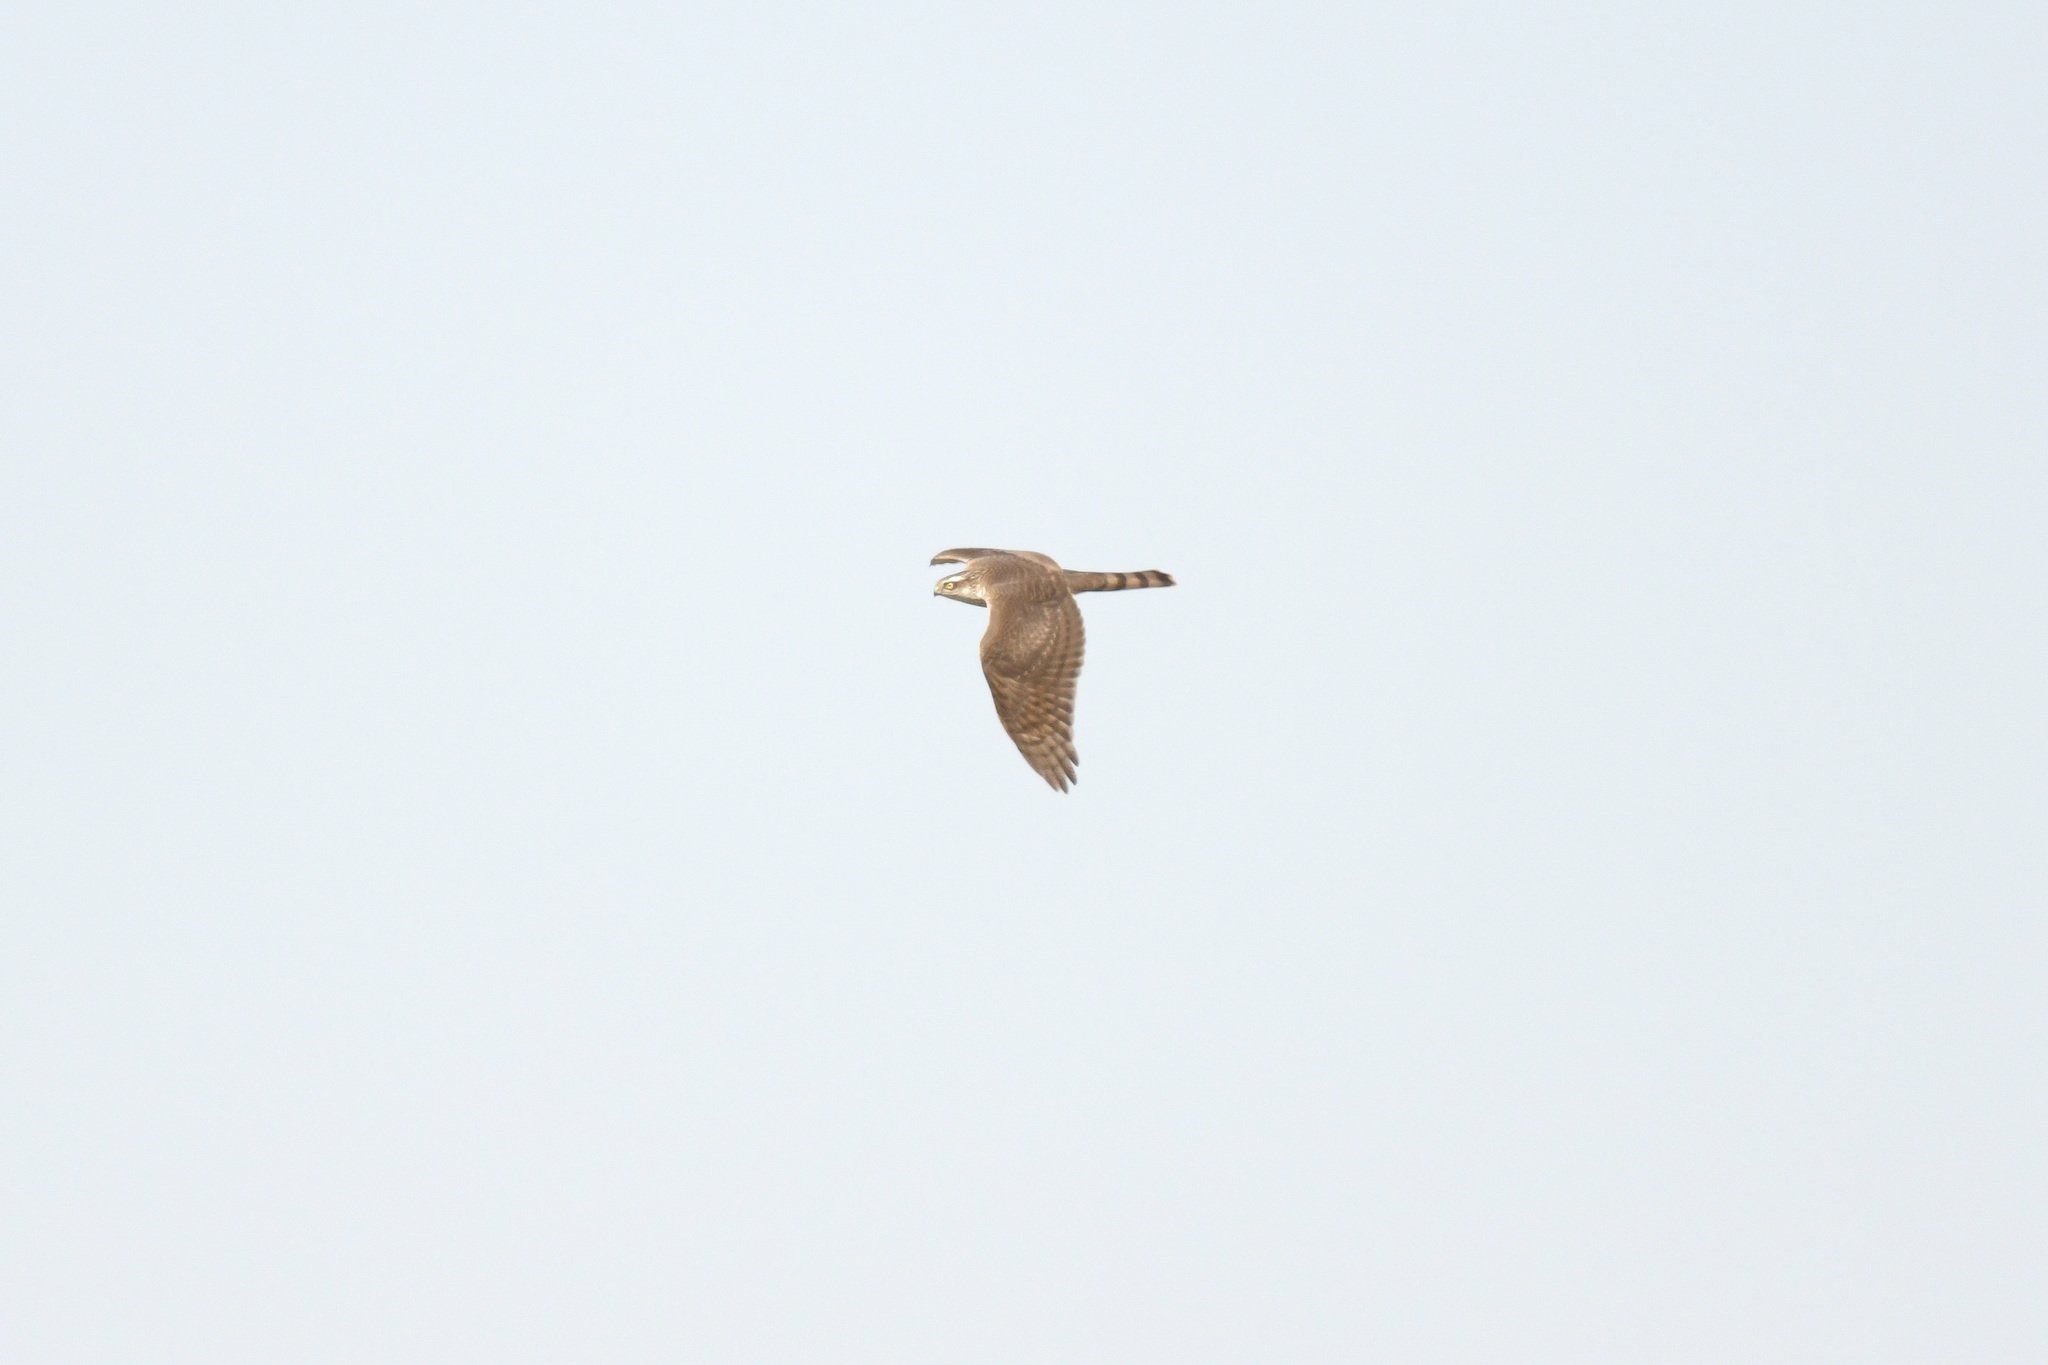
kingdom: Animalia
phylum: Chordata
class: Aves
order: Accipitriformes
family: Accipitridae
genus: Accipiter
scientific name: Accipiter nisus
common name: Eurasian sparrowhawk
